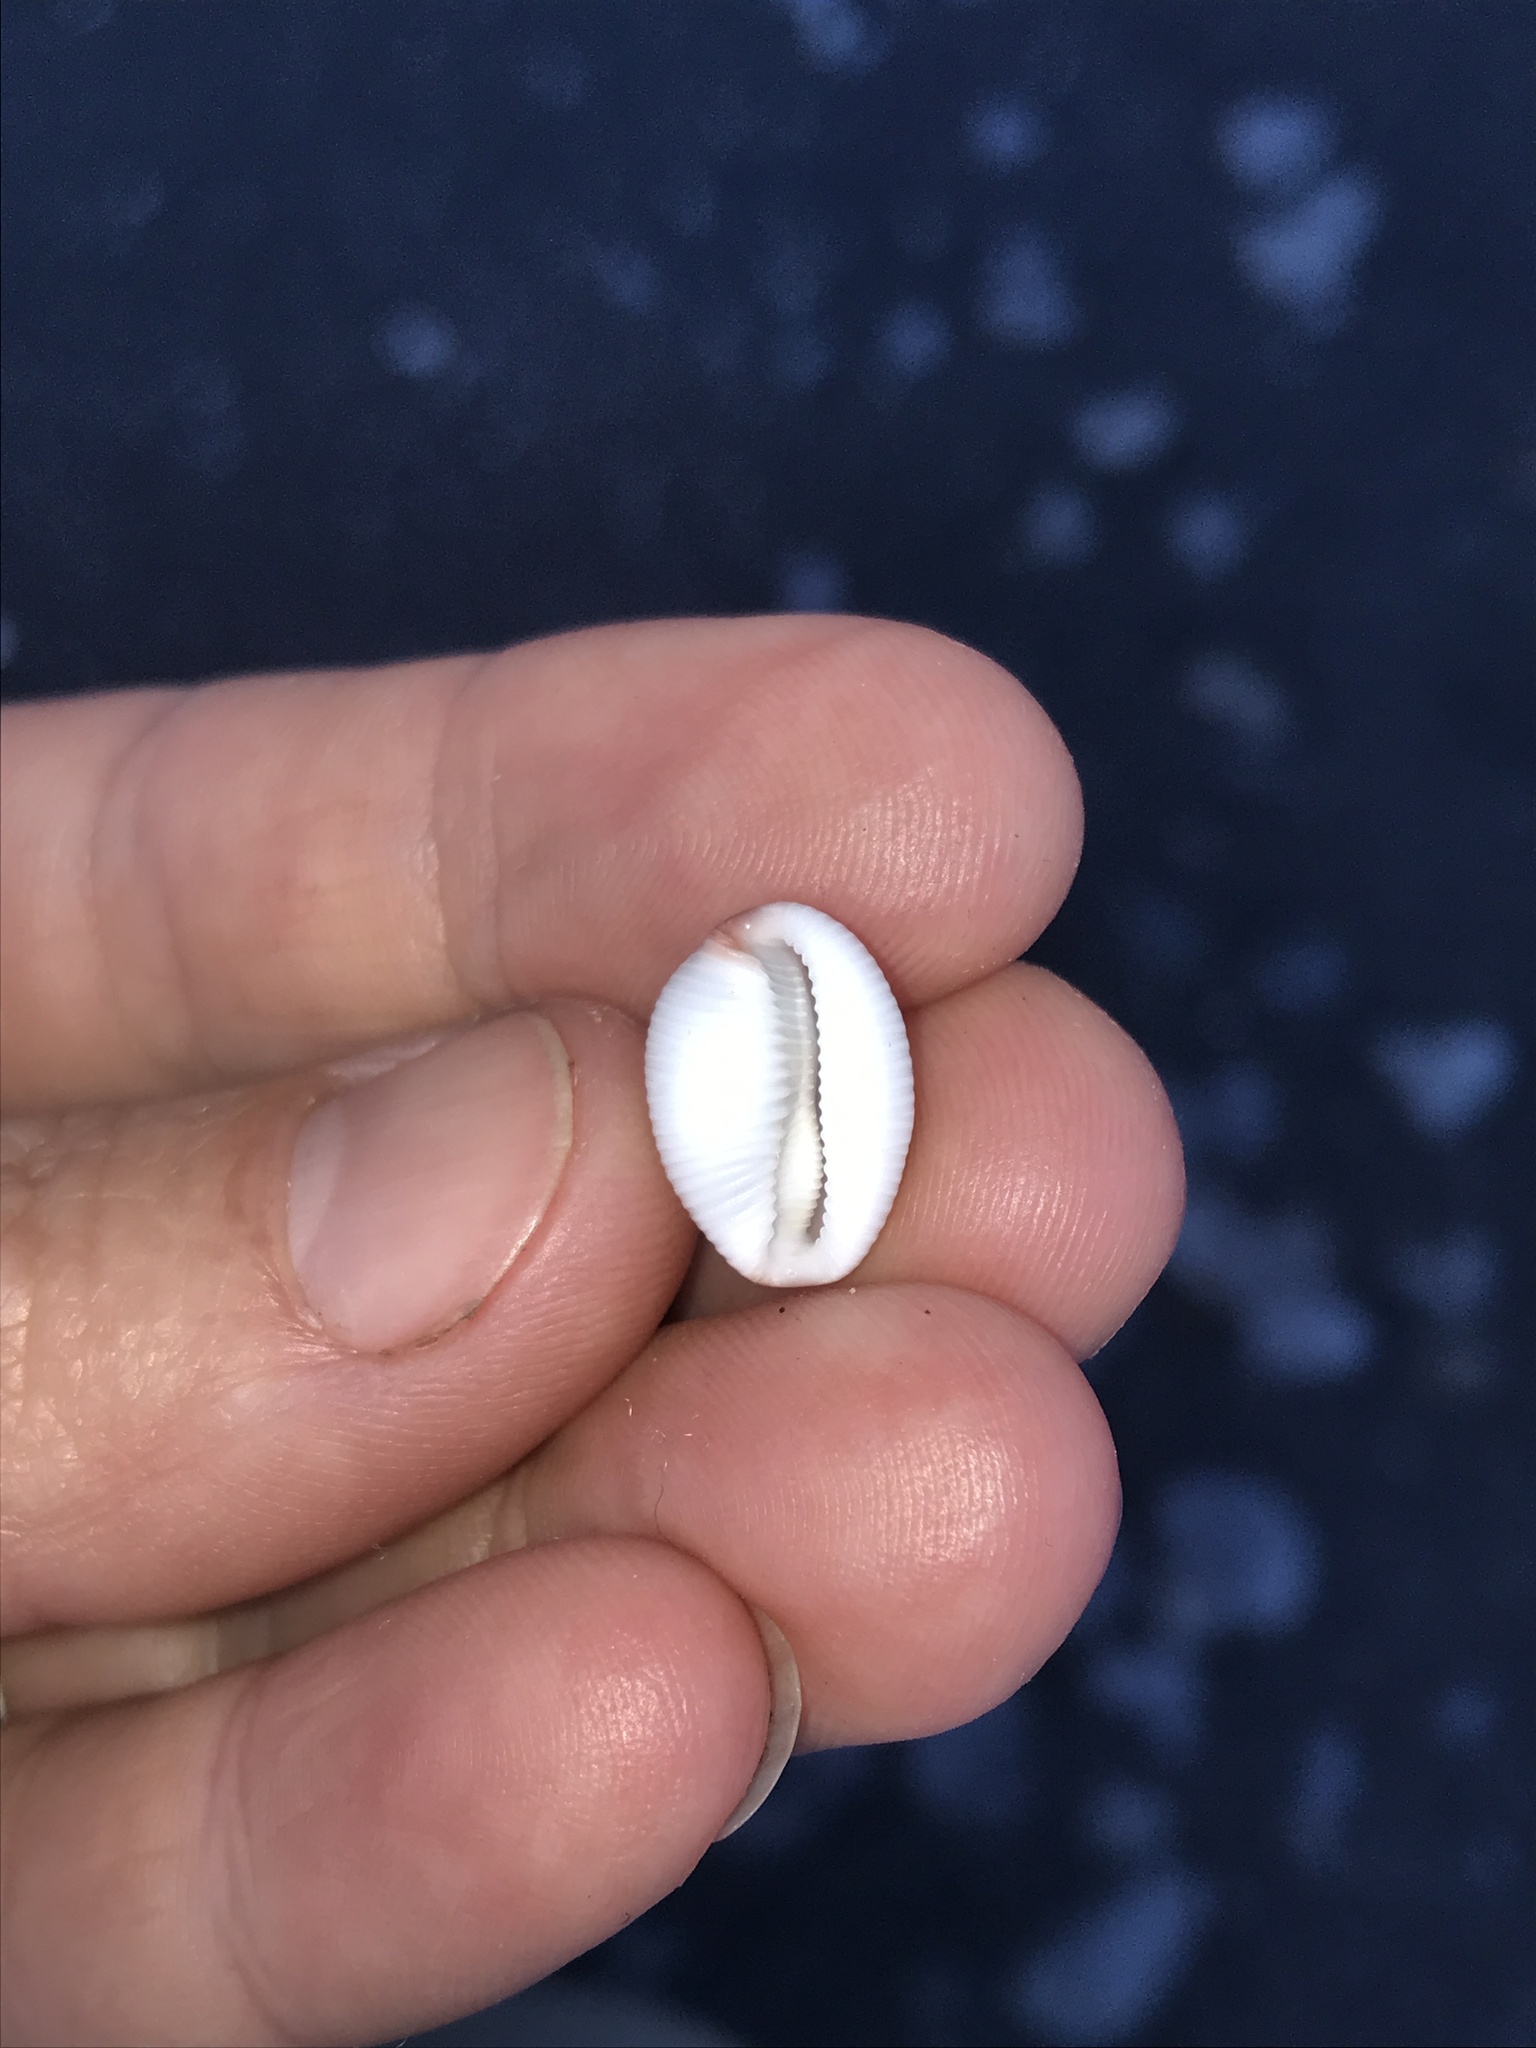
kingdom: Animalia
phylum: Mollusca
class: Gastropoda
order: Littorinimorpha
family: Triviidae
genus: Ellatrivia
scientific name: Ellatrivia merces
